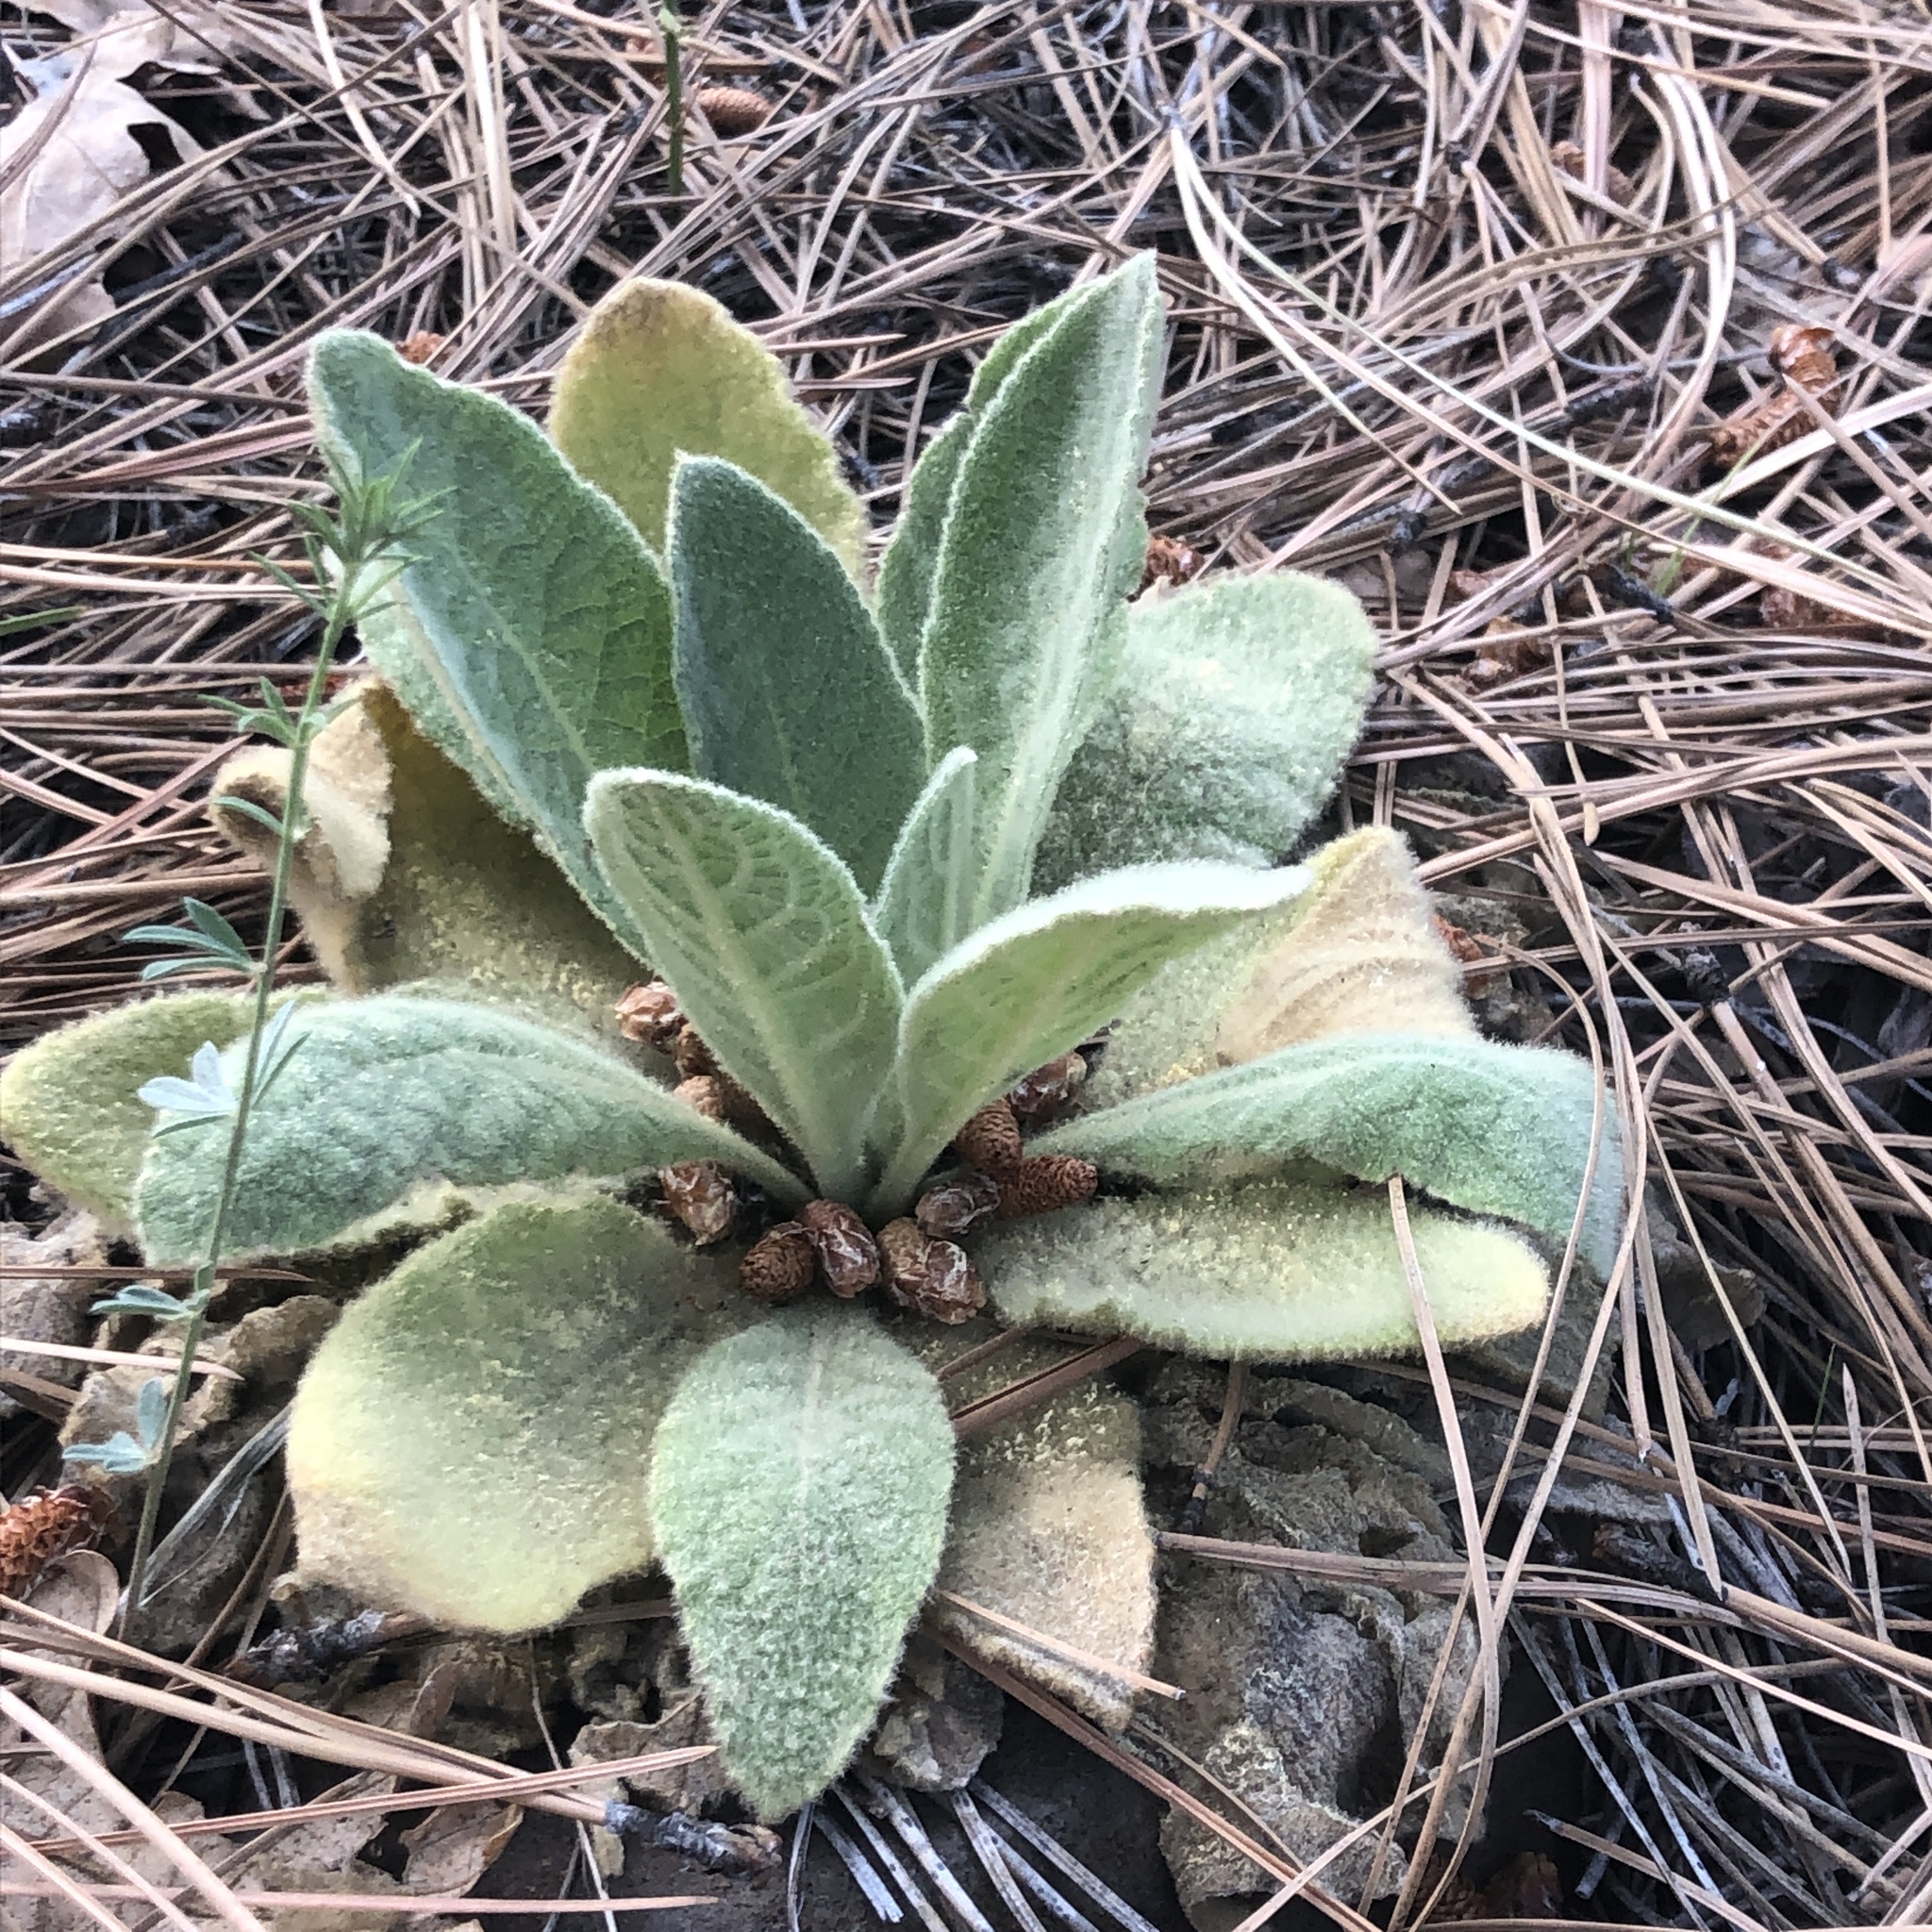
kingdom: Plantae
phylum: Tracheophyta
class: Magnoliopsida
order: Lamiales
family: Scrophulariaceae
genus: Verbascum
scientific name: Verbascum thapsus
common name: Common mullein
